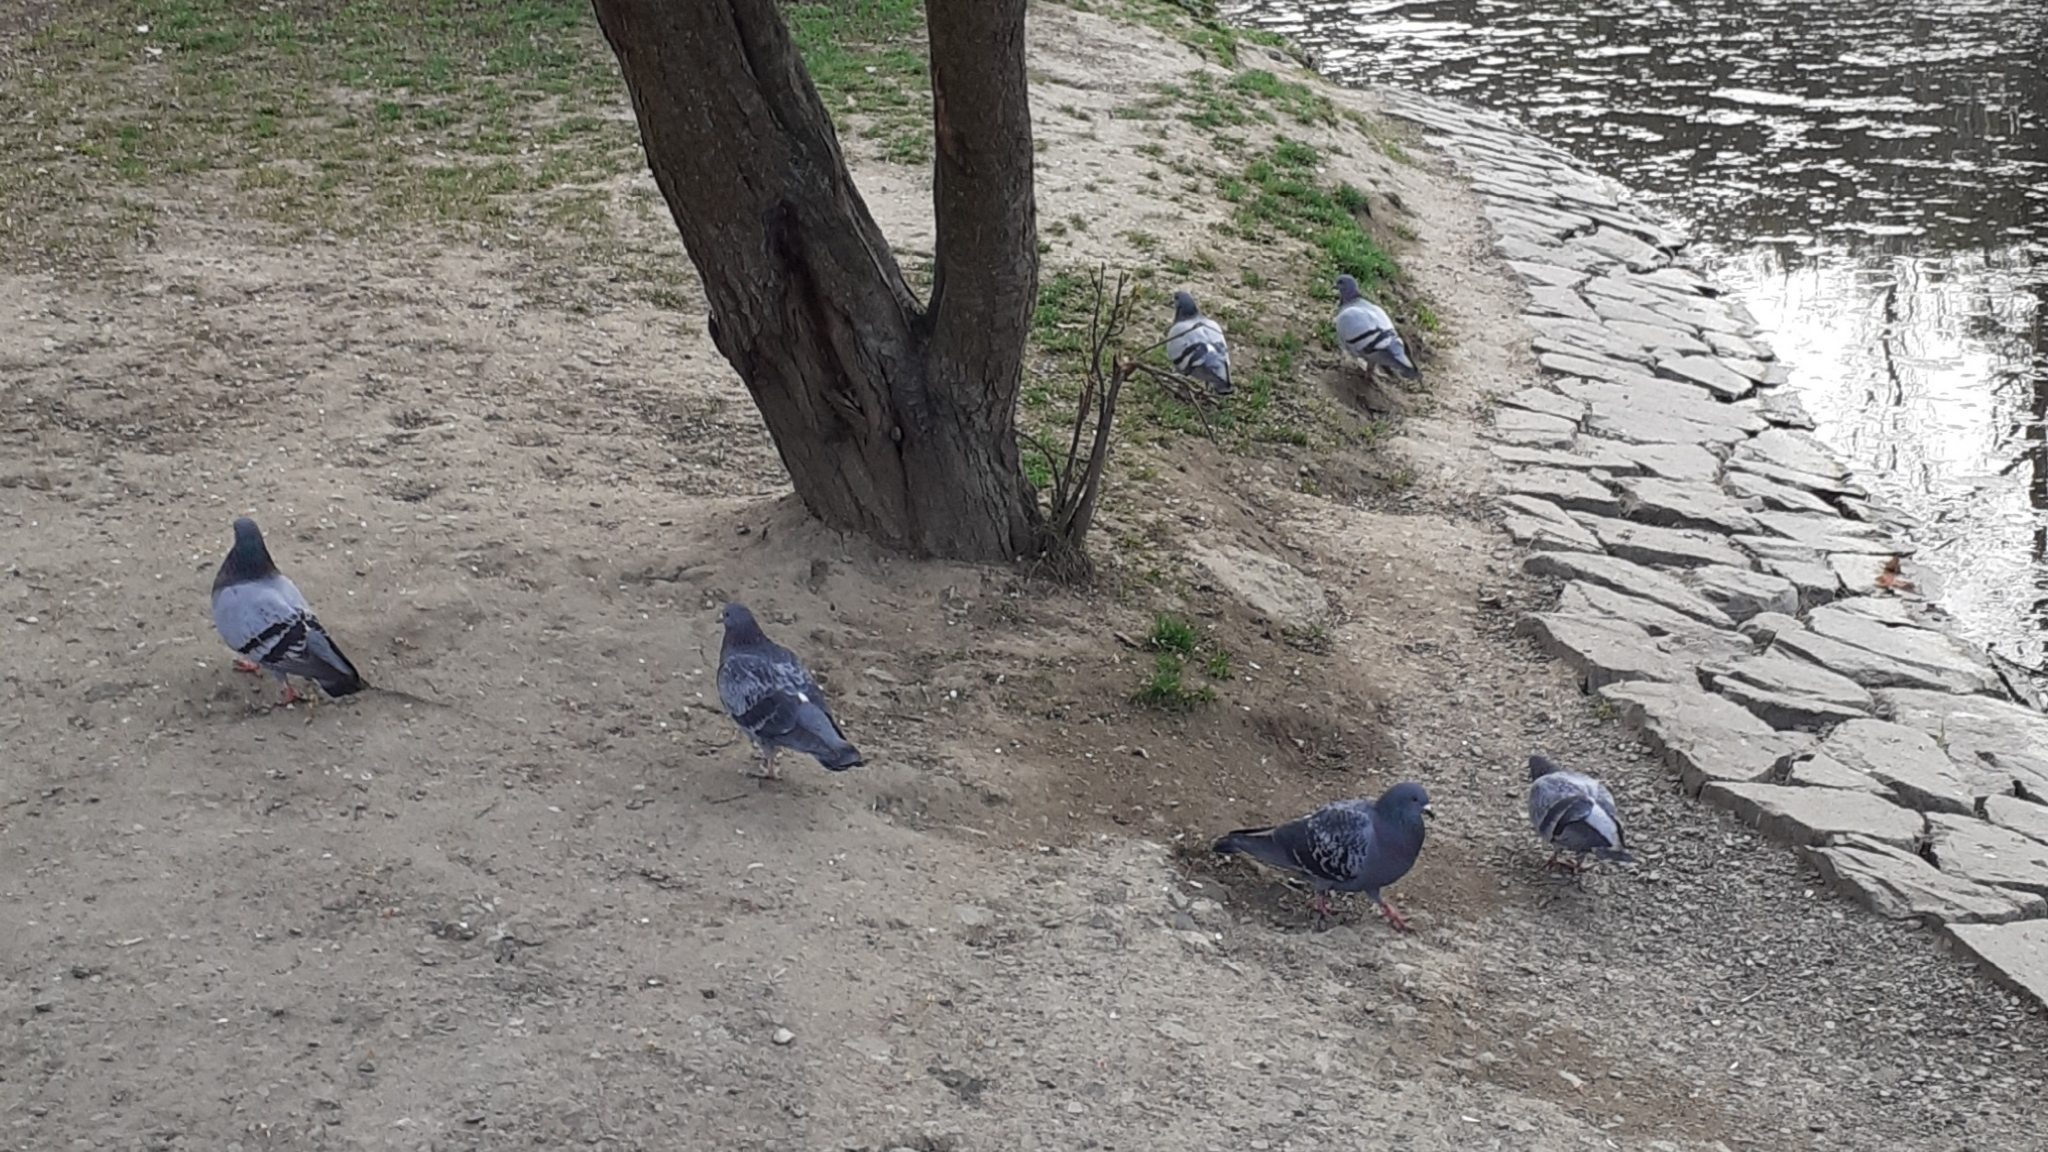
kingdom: Animalia
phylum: Chordata
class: Aves
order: Columbiformes
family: Columbidae
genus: Columba
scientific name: Columba livia
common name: Rock pigeon
